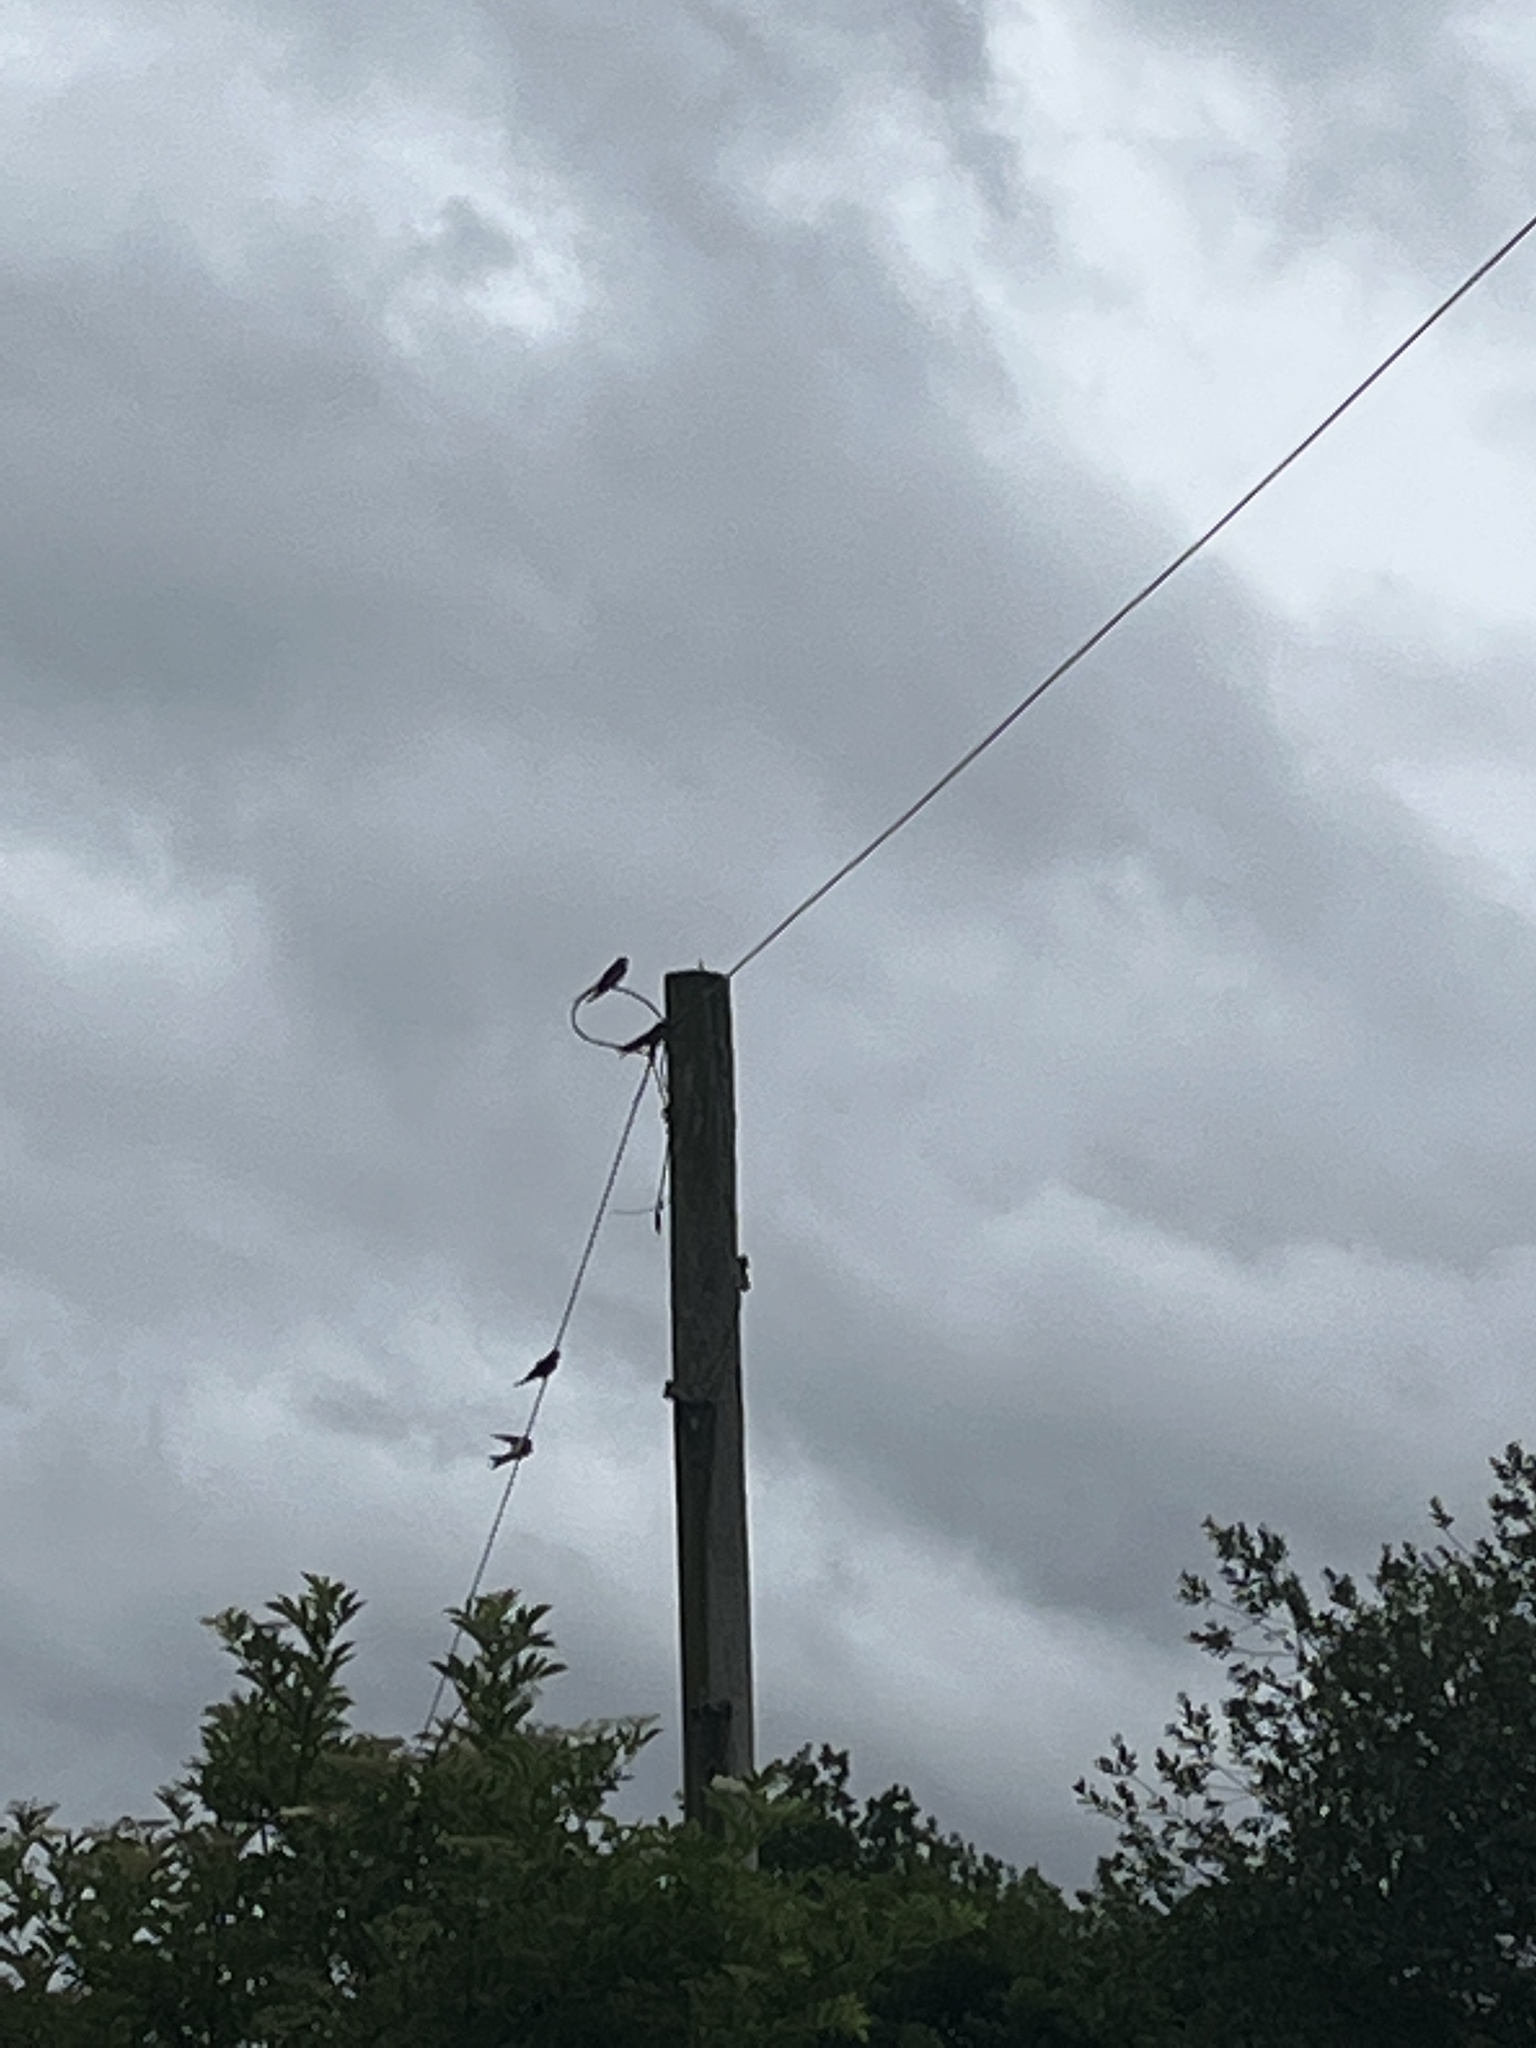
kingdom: Animalia
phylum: Chordata
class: Aves
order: Passeriformes
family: Hirundinidae
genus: Hirundo
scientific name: Hirundo rustica
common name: Barn swallow
